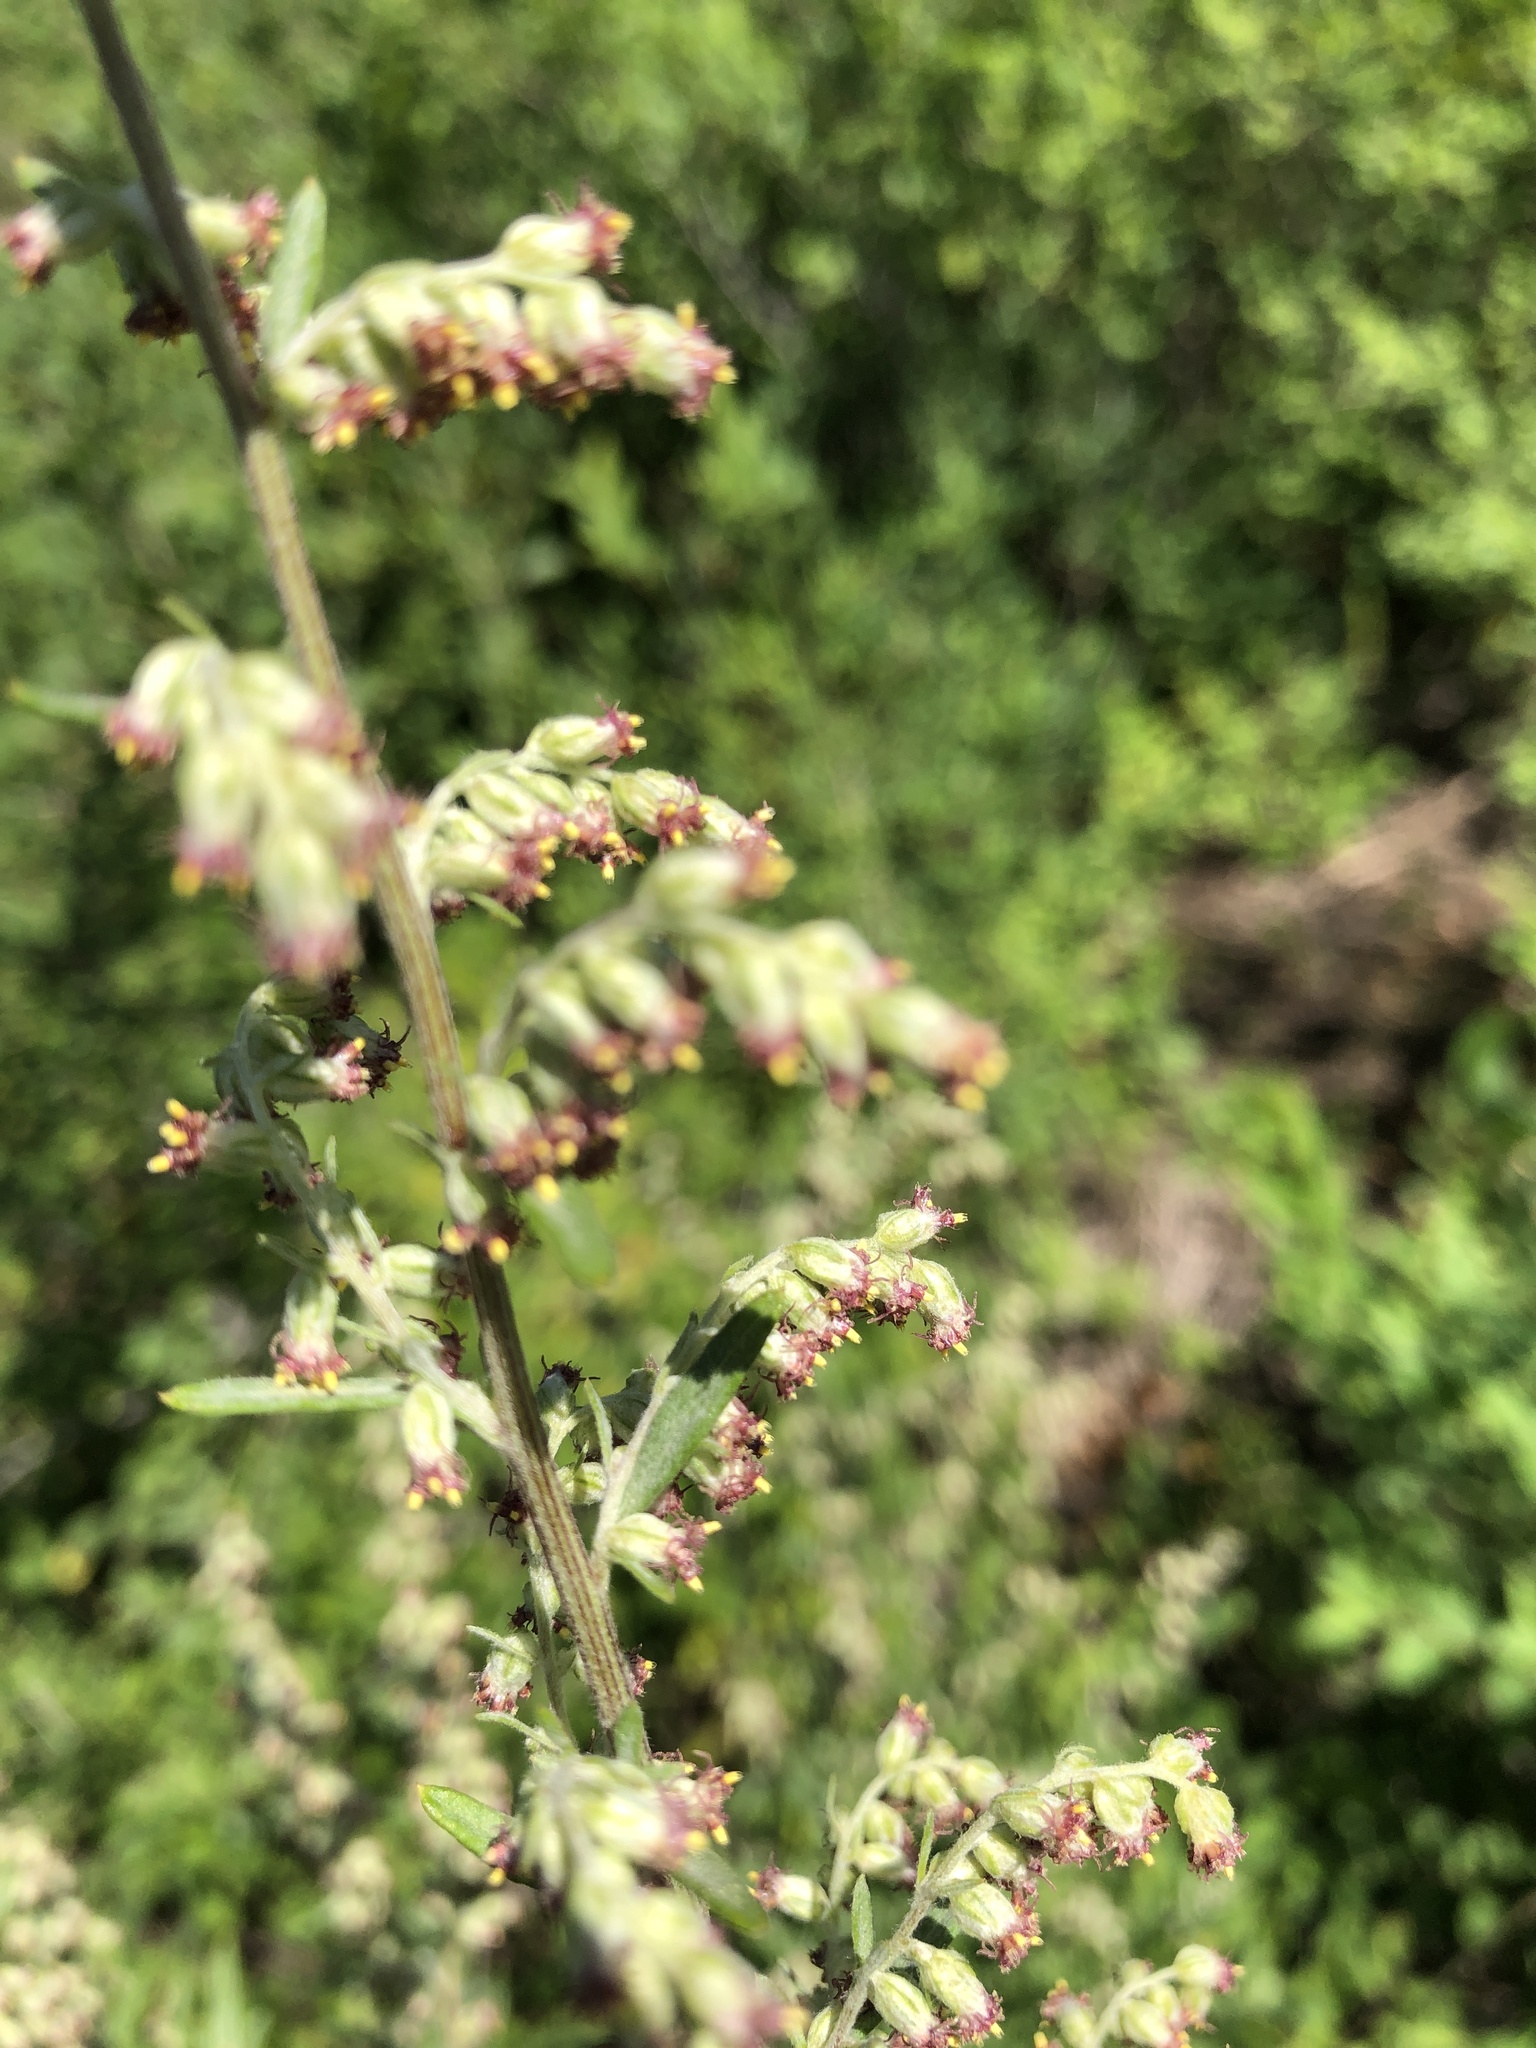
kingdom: Plantae
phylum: Tracheophyta
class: Magnoliopsida
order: Asterales
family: Asteraceae
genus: Artemisia
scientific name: Artemisia vulgaris
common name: Mugwort
